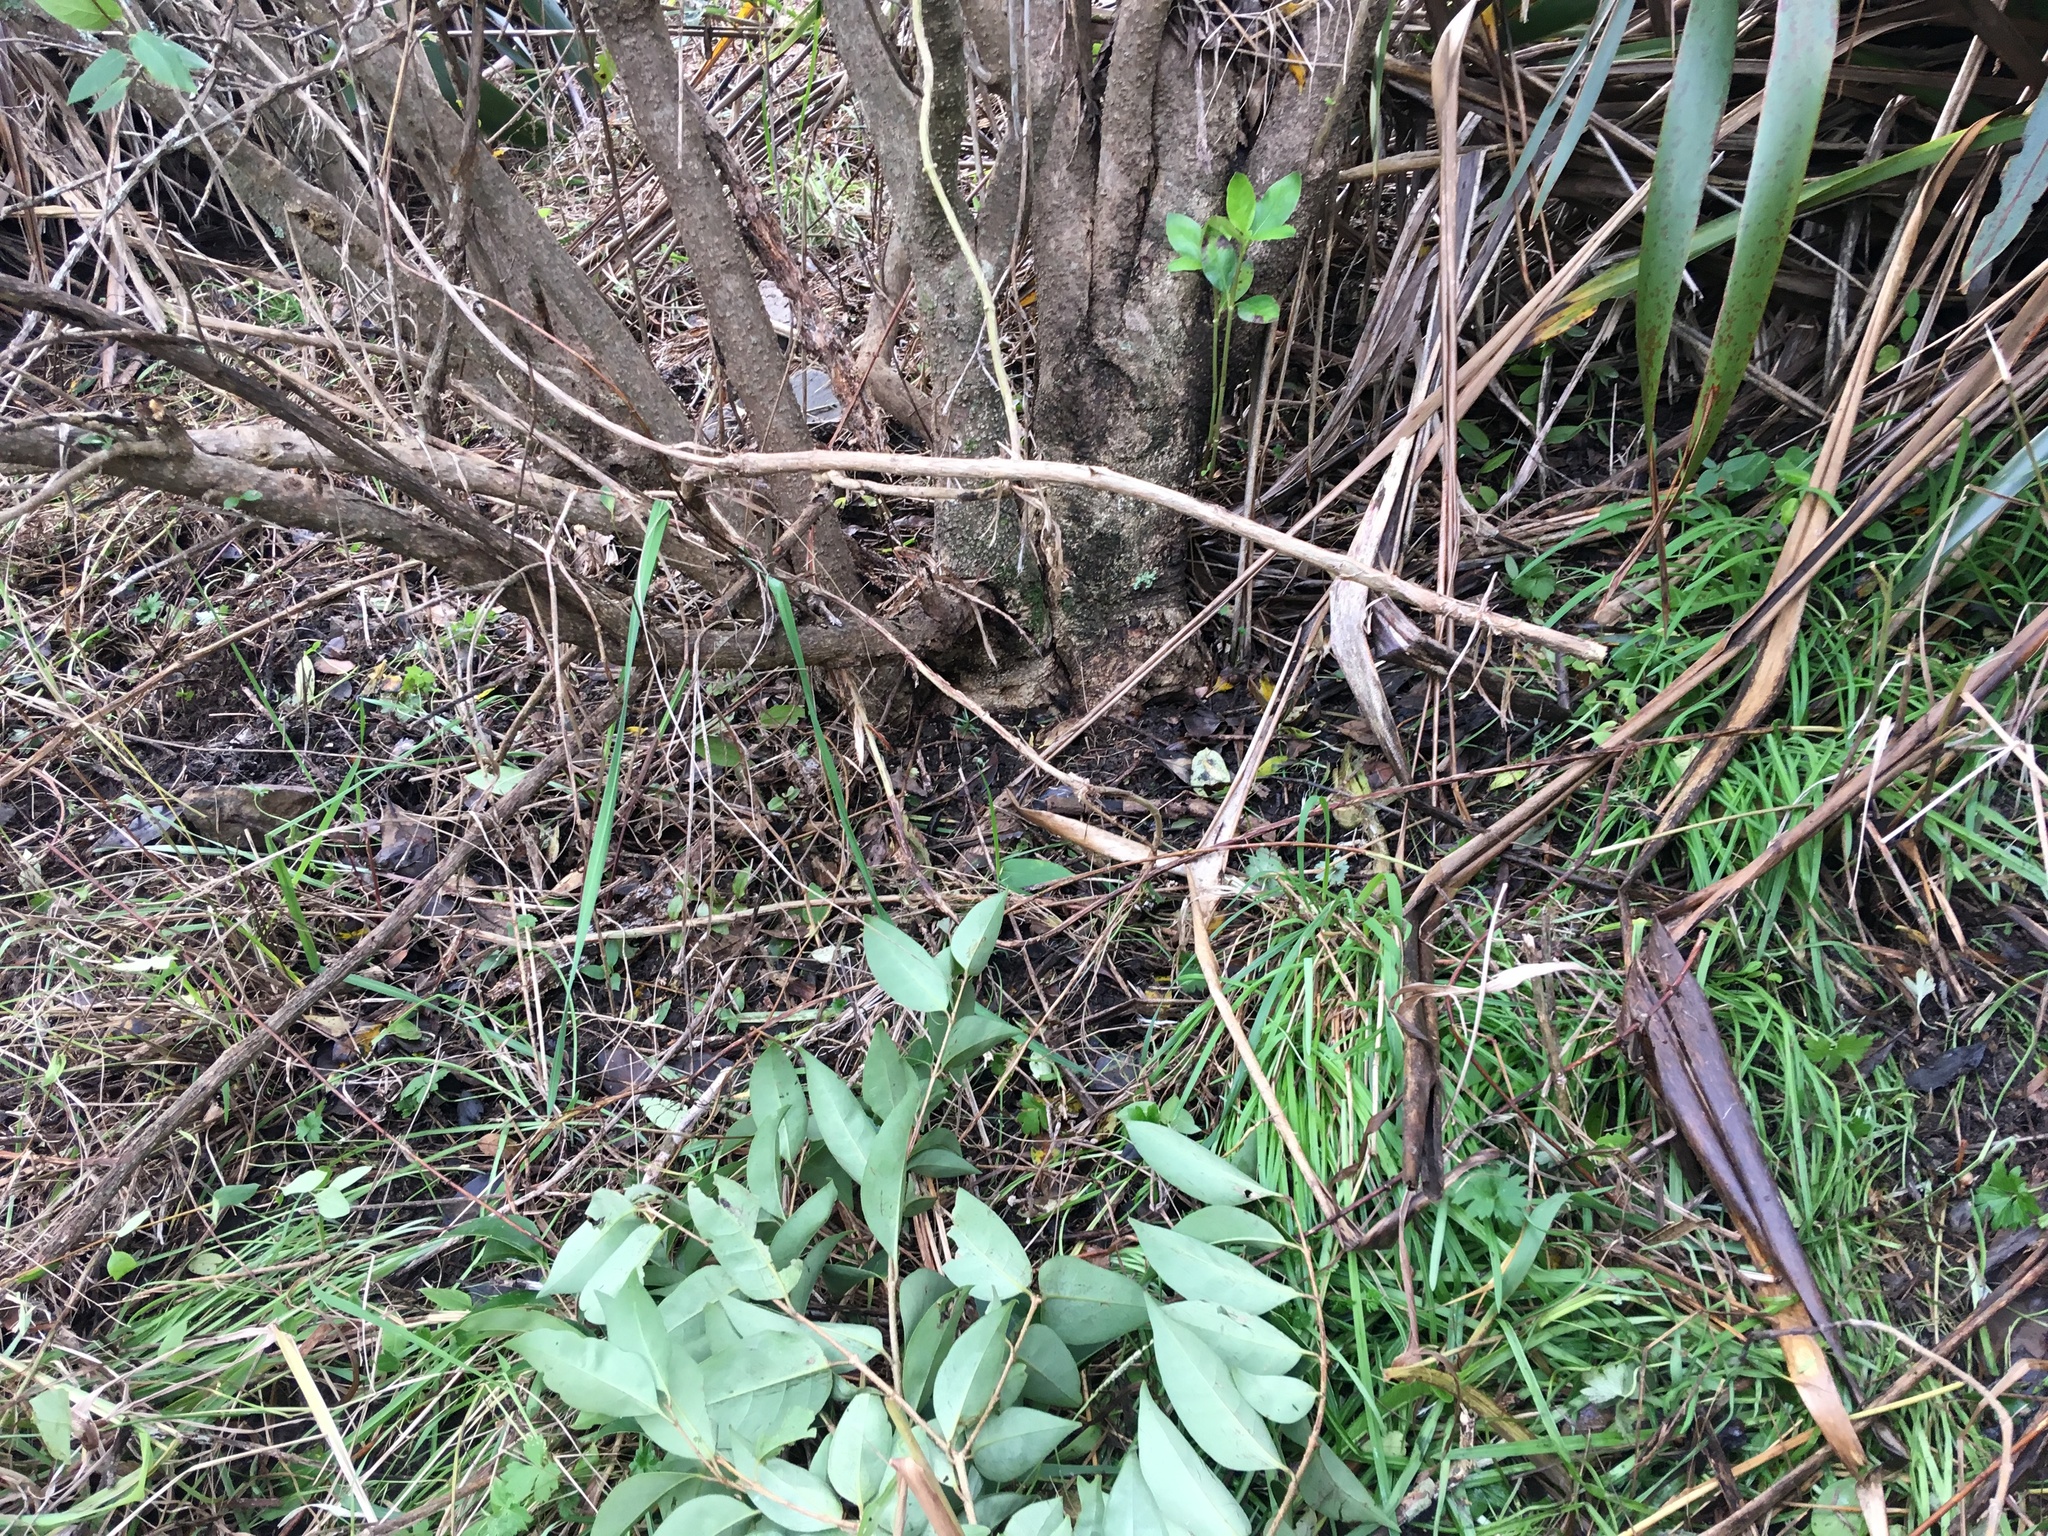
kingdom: Plantae
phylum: Tracheophyta
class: Magnoliopsida
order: Gentianales
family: Rubiaceae
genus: Coprosma
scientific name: Coprosma robusta
